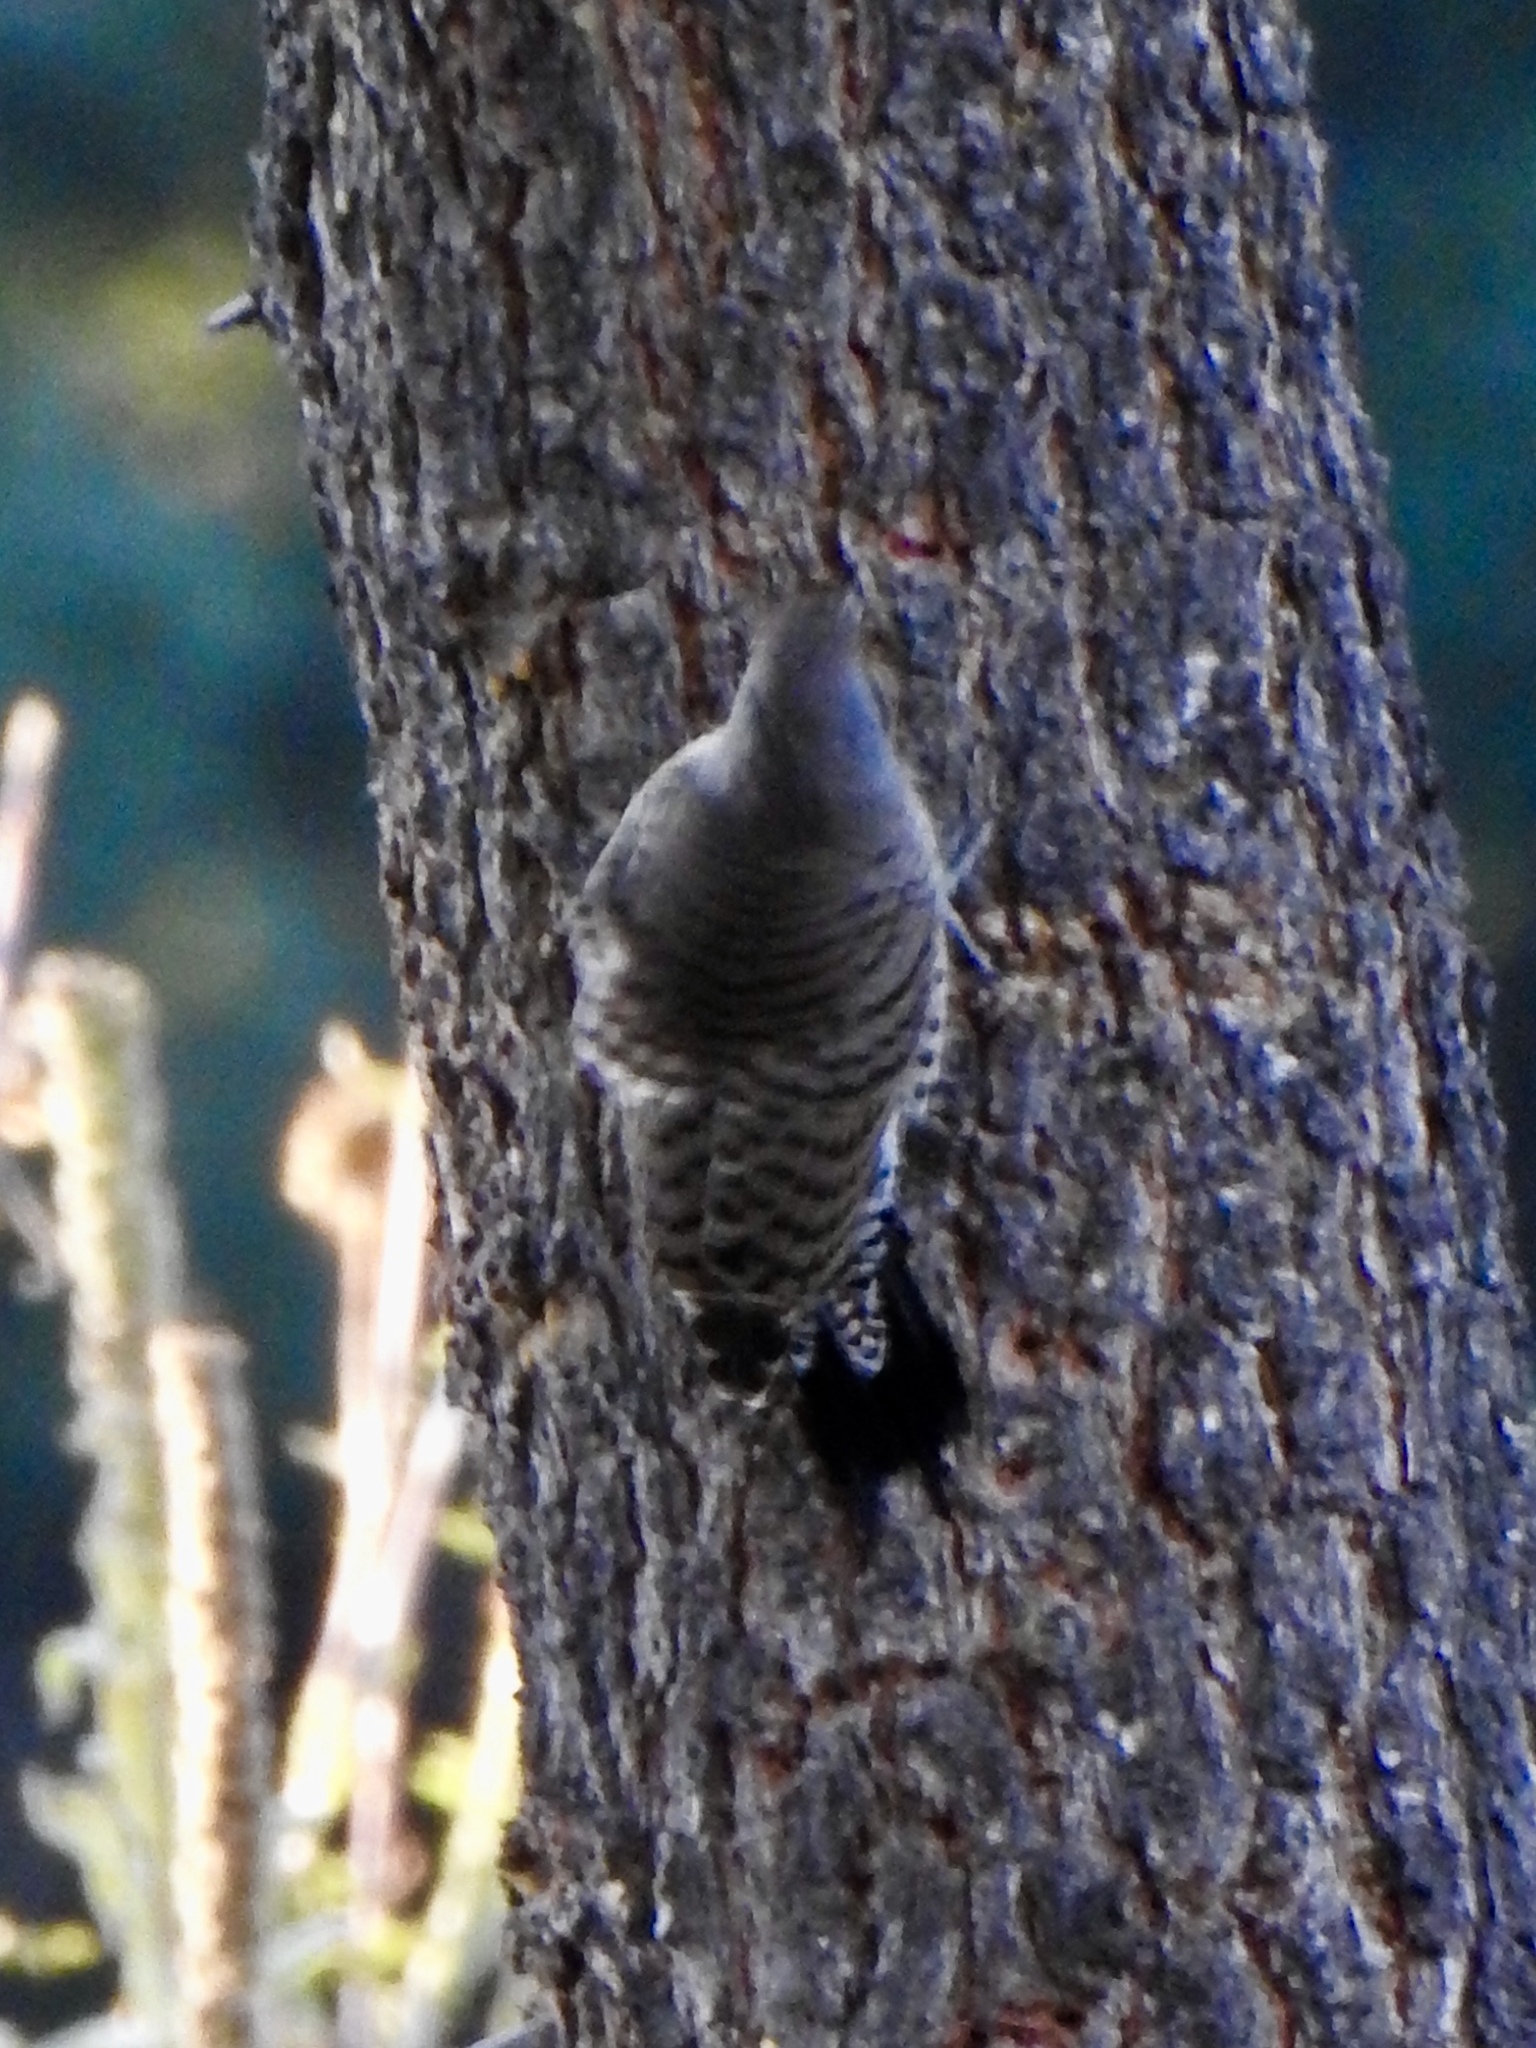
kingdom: Animalia
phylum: Chordata
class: Aves
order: Piciformes
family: Picidae
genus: Colaptes
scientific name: Colaptes auratus
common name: Northern flicker
